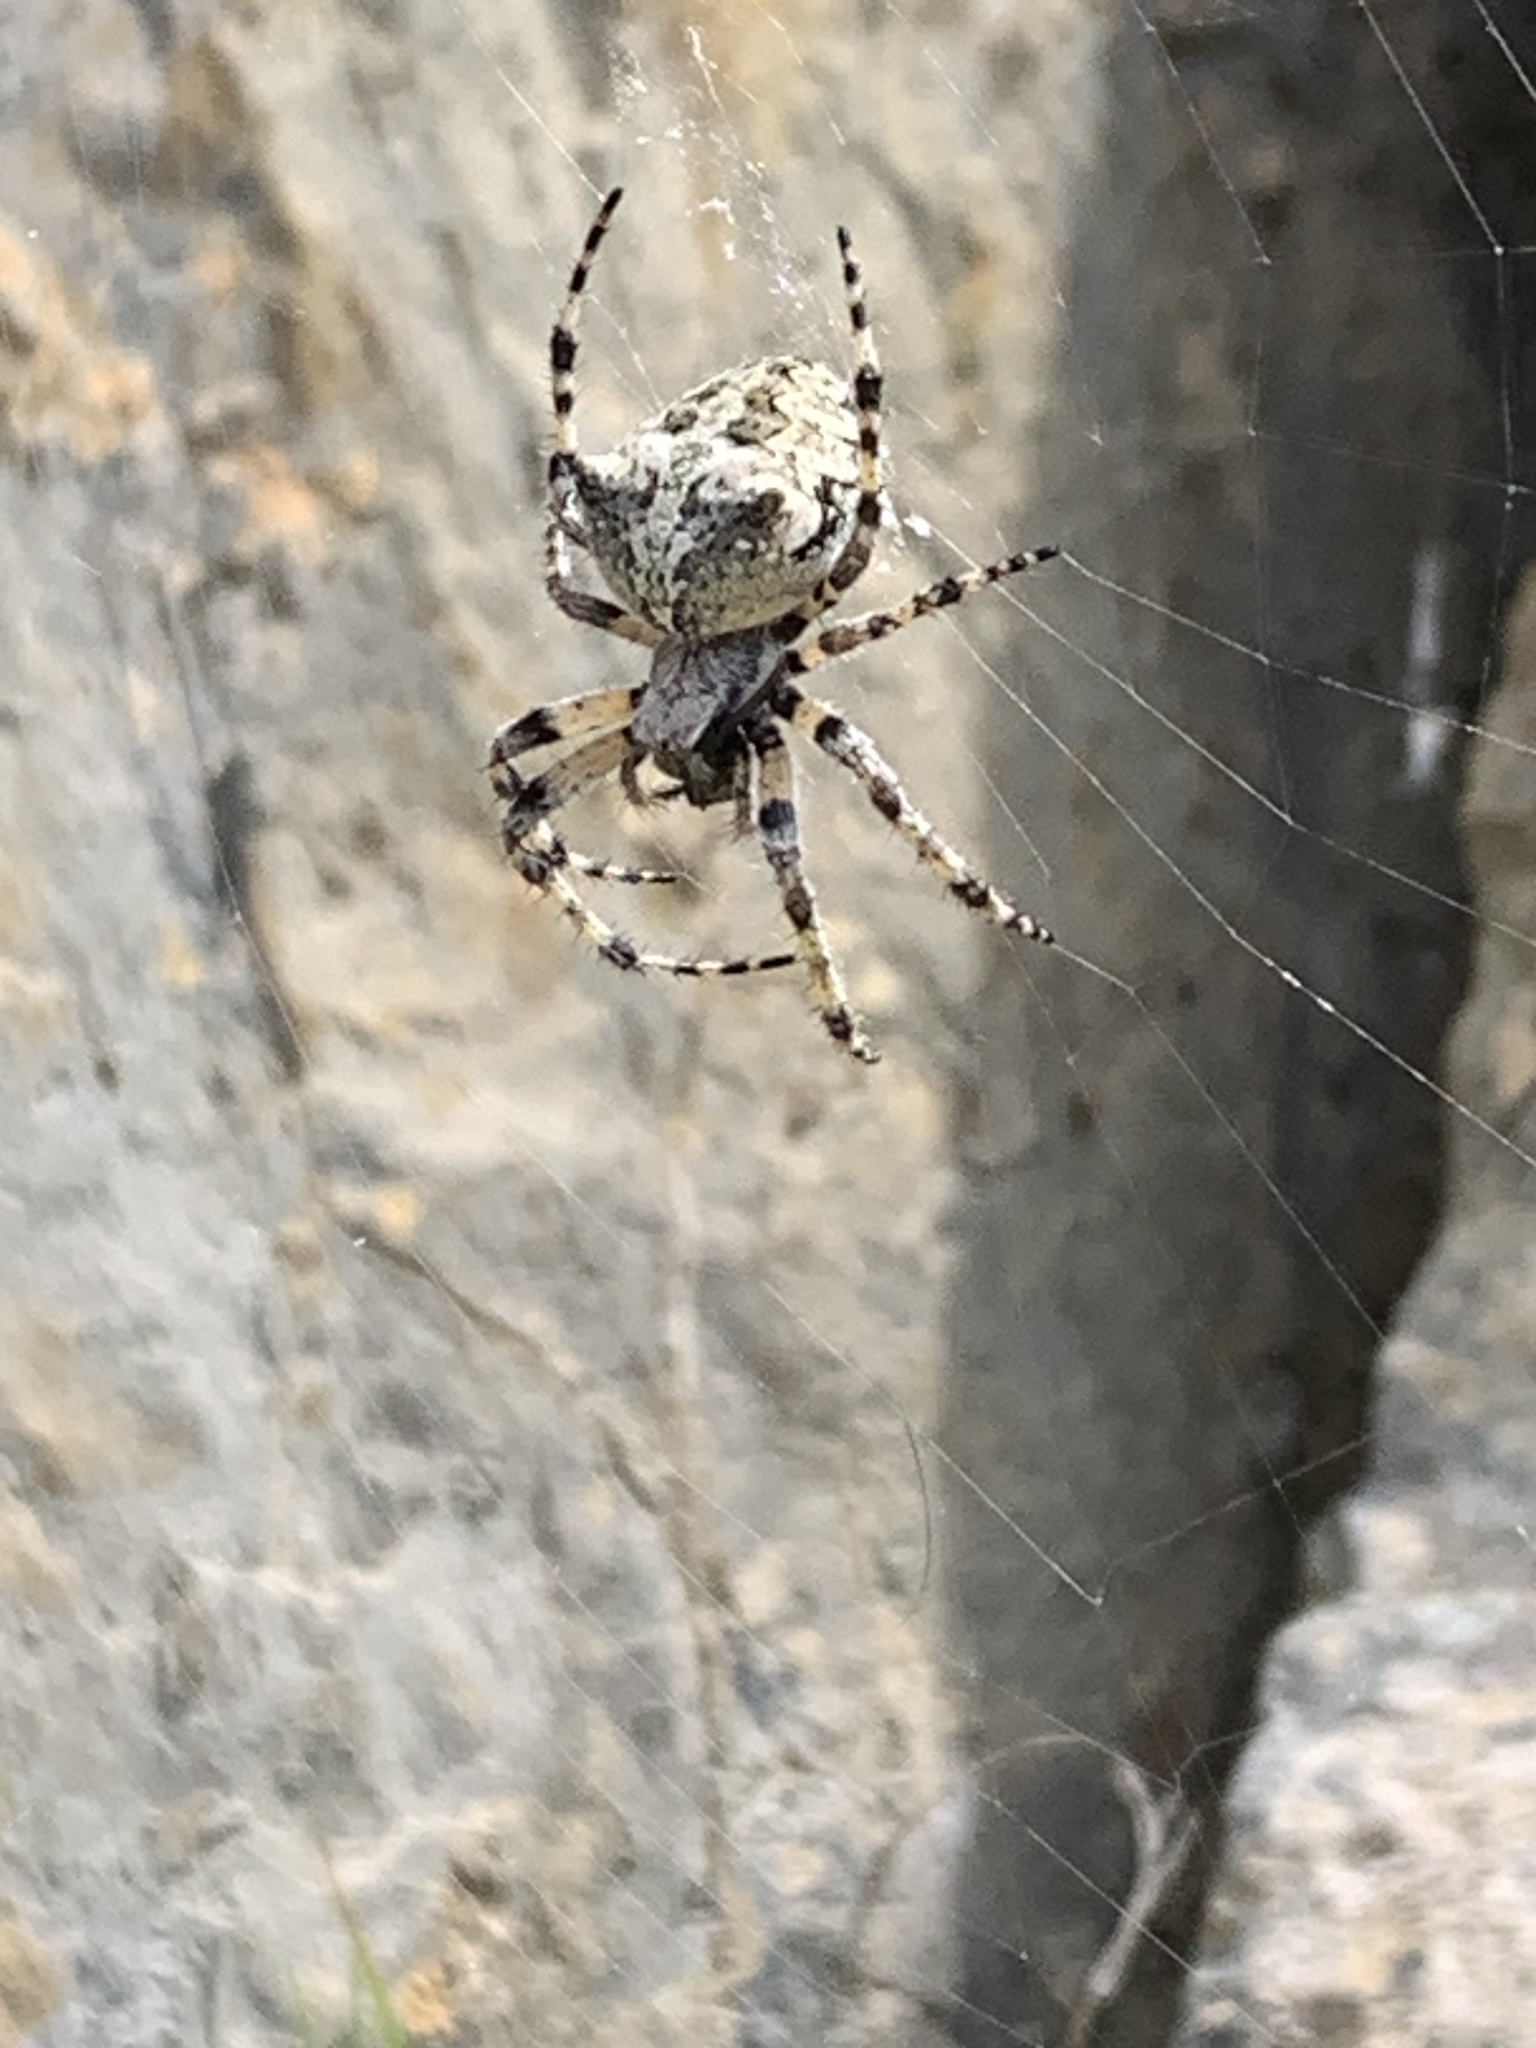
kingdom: Animalia
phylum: Arthropoda
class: Arachnida
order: Araneae
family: Araneidae
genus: Araneus
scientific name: Araneus circe
